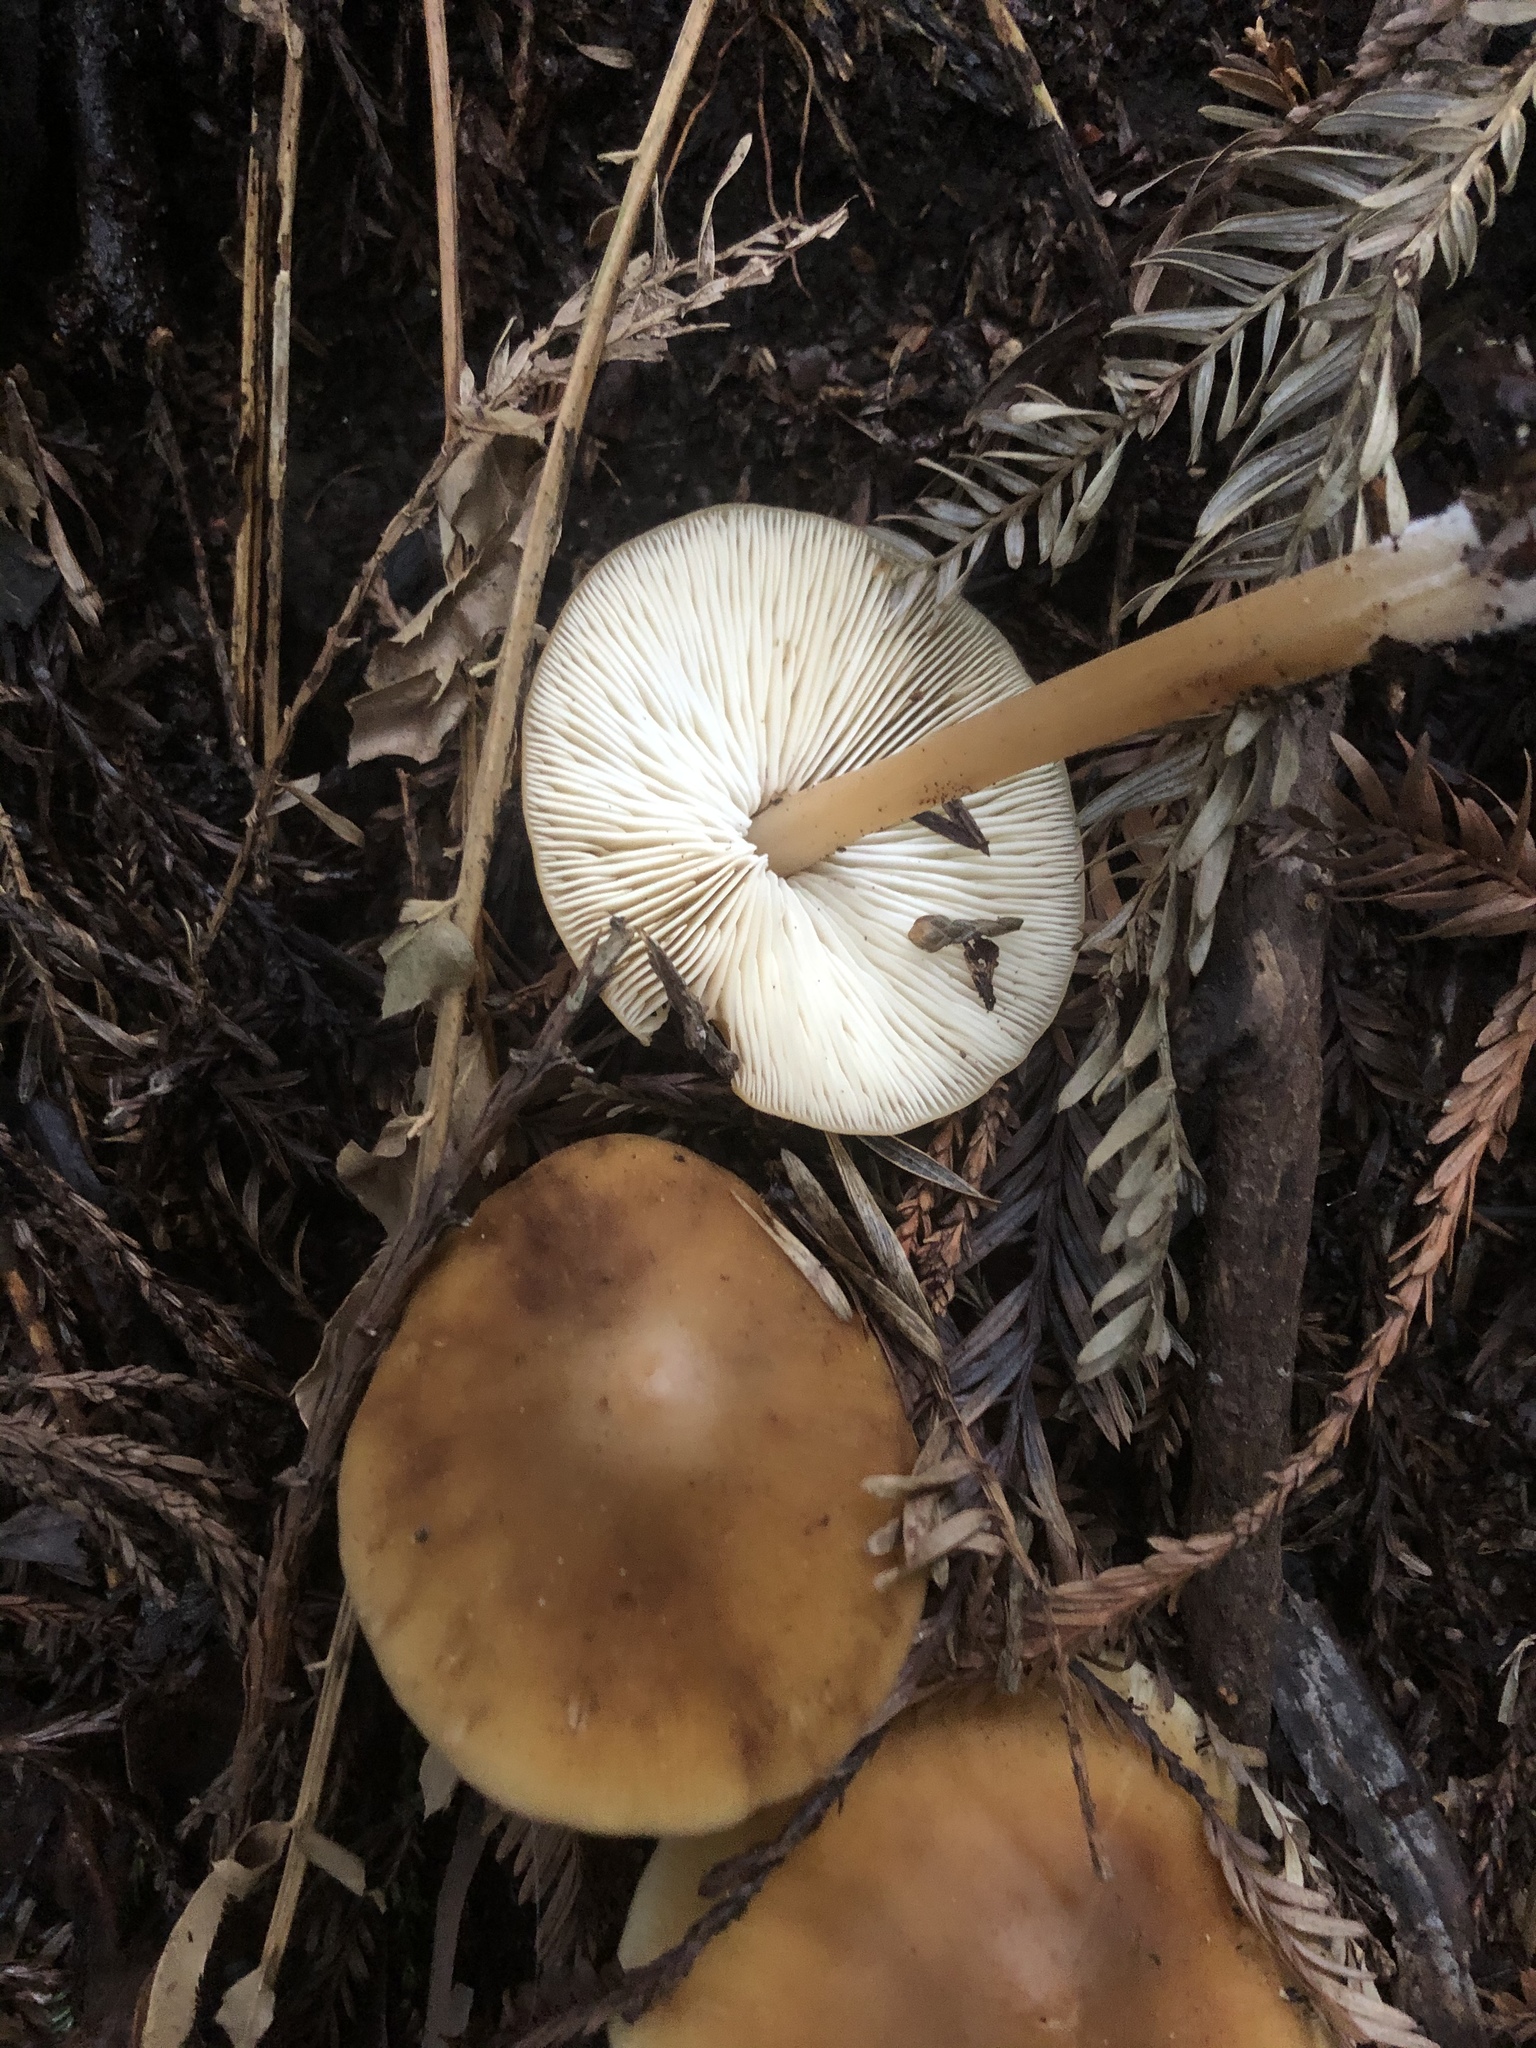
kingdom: Fungi
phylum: Basidiomycota
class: Agaricomycetes
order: Agaricales
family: Tricholomataceae
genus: Caulorhiza
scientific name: Caulorhiza umbonata
